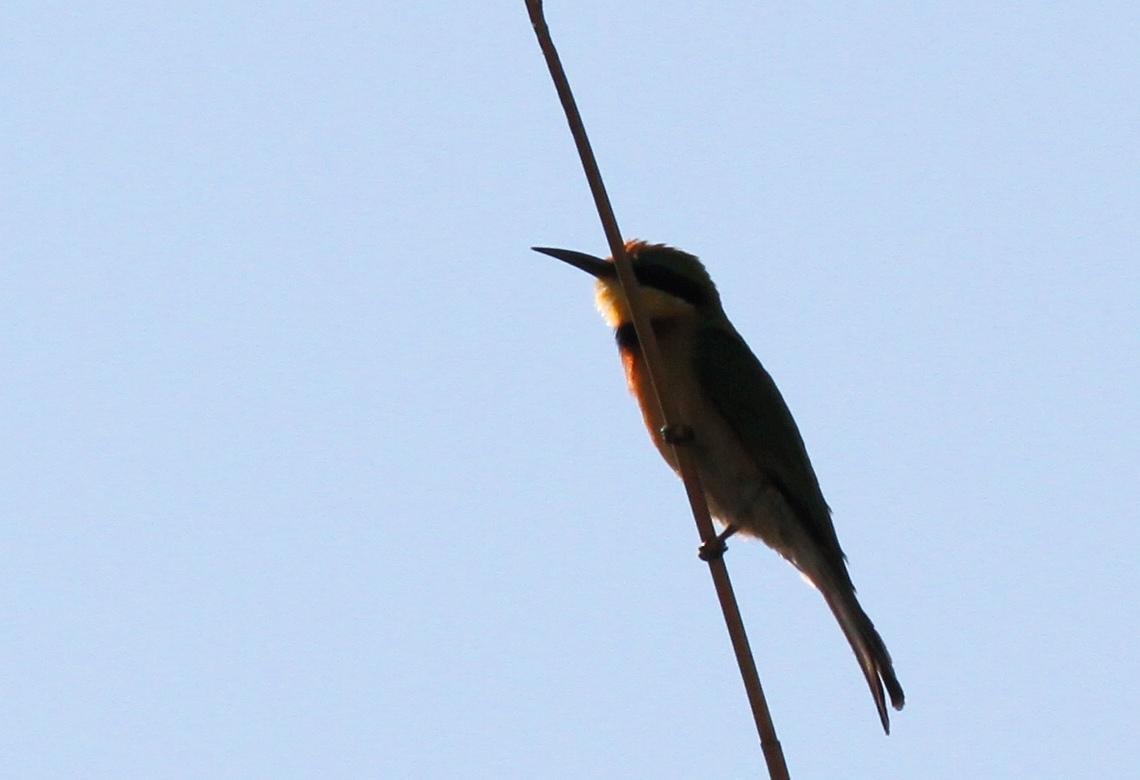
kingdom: Animalia
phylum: Chordata
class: Aves
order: Coraciiformes
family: Meropidae
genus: Merops
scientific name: Merops pusillus
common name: Little bee-eater
